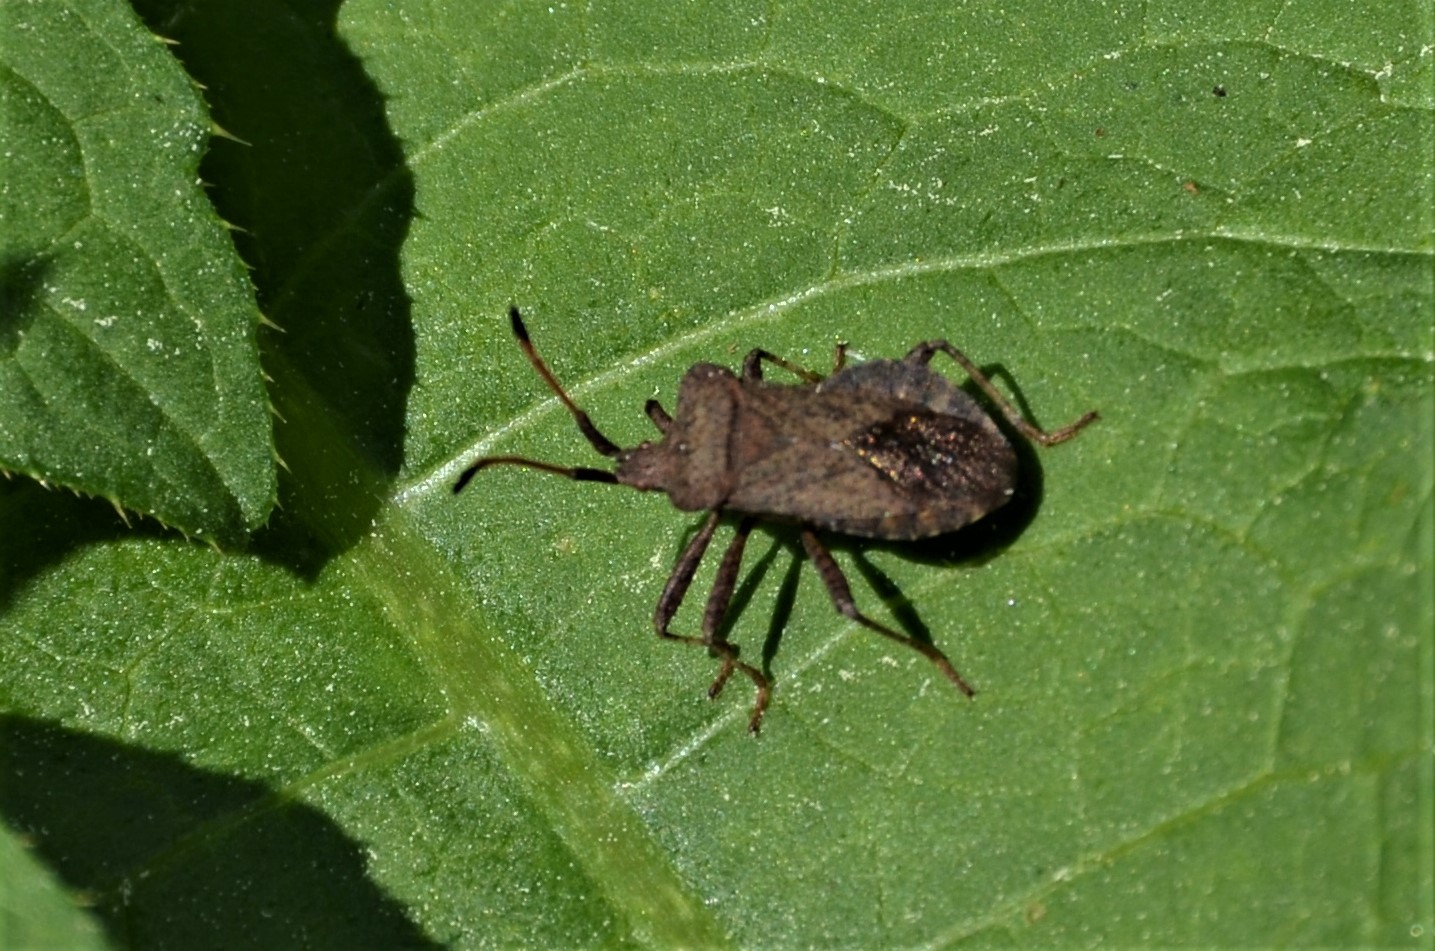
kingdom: Animalia
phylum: Arthropoda
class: Insecta
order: Hemiptera
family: Coreidae
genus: Coreus
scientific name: Coreus marginatus
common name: Dock bug
